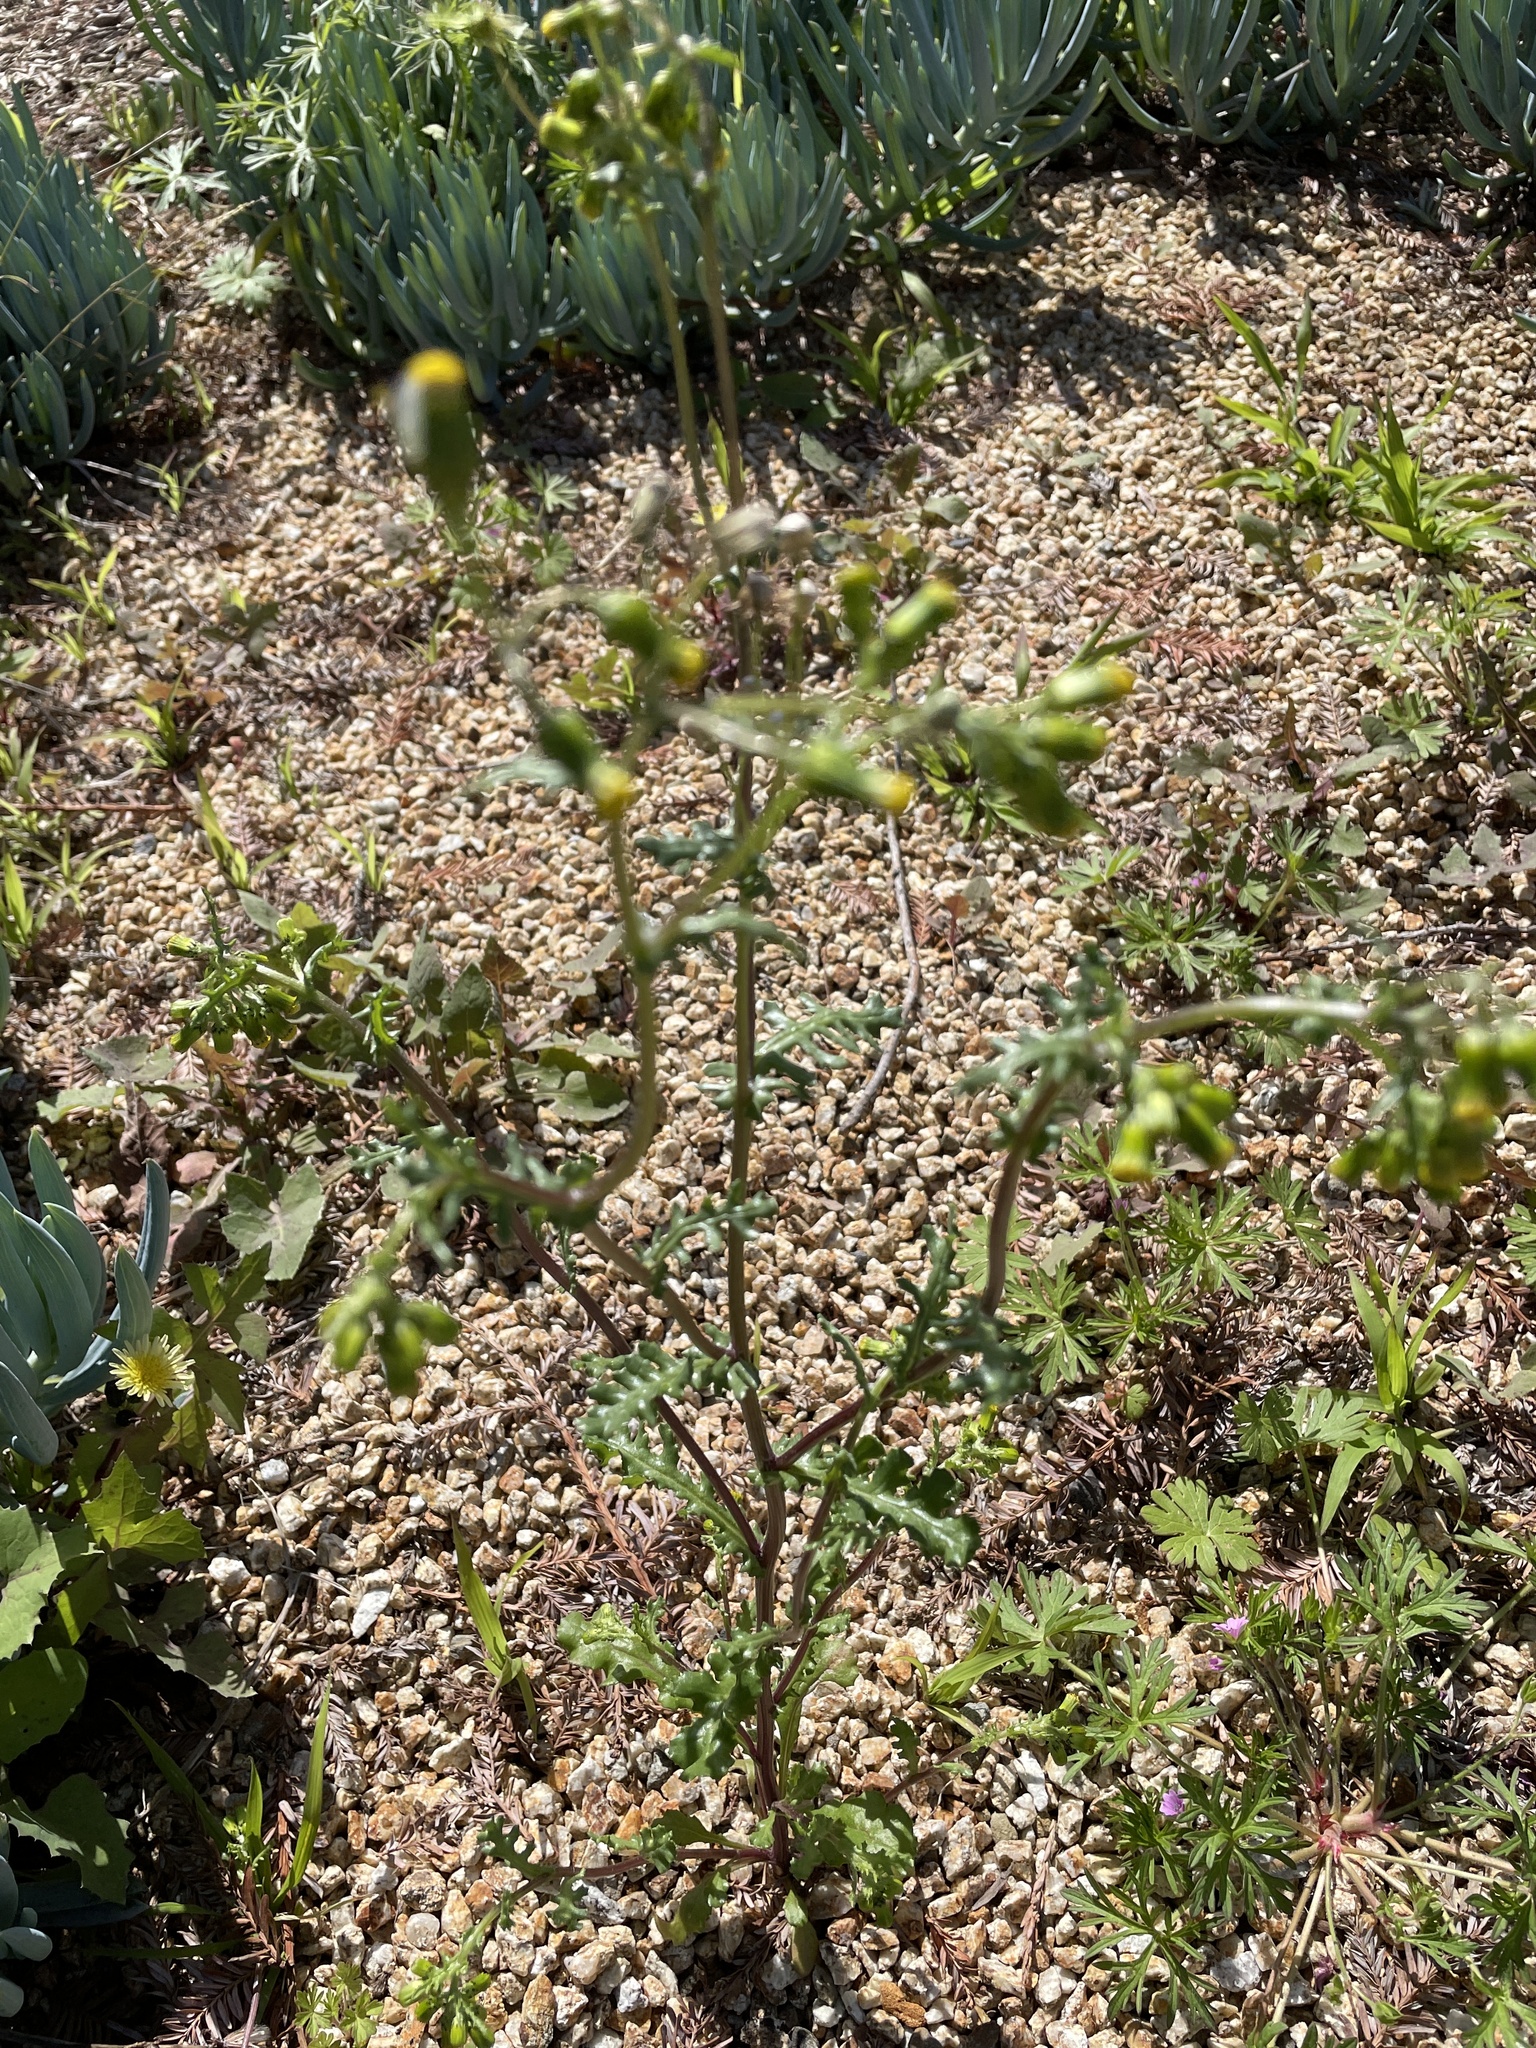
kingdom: Plantae
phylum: Tracheophyta
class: Magnoliopsida
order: Asterales
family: Asteraceae
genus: Senecio
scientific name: Senecio vulgaris
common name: Old-man-in-the-spring
